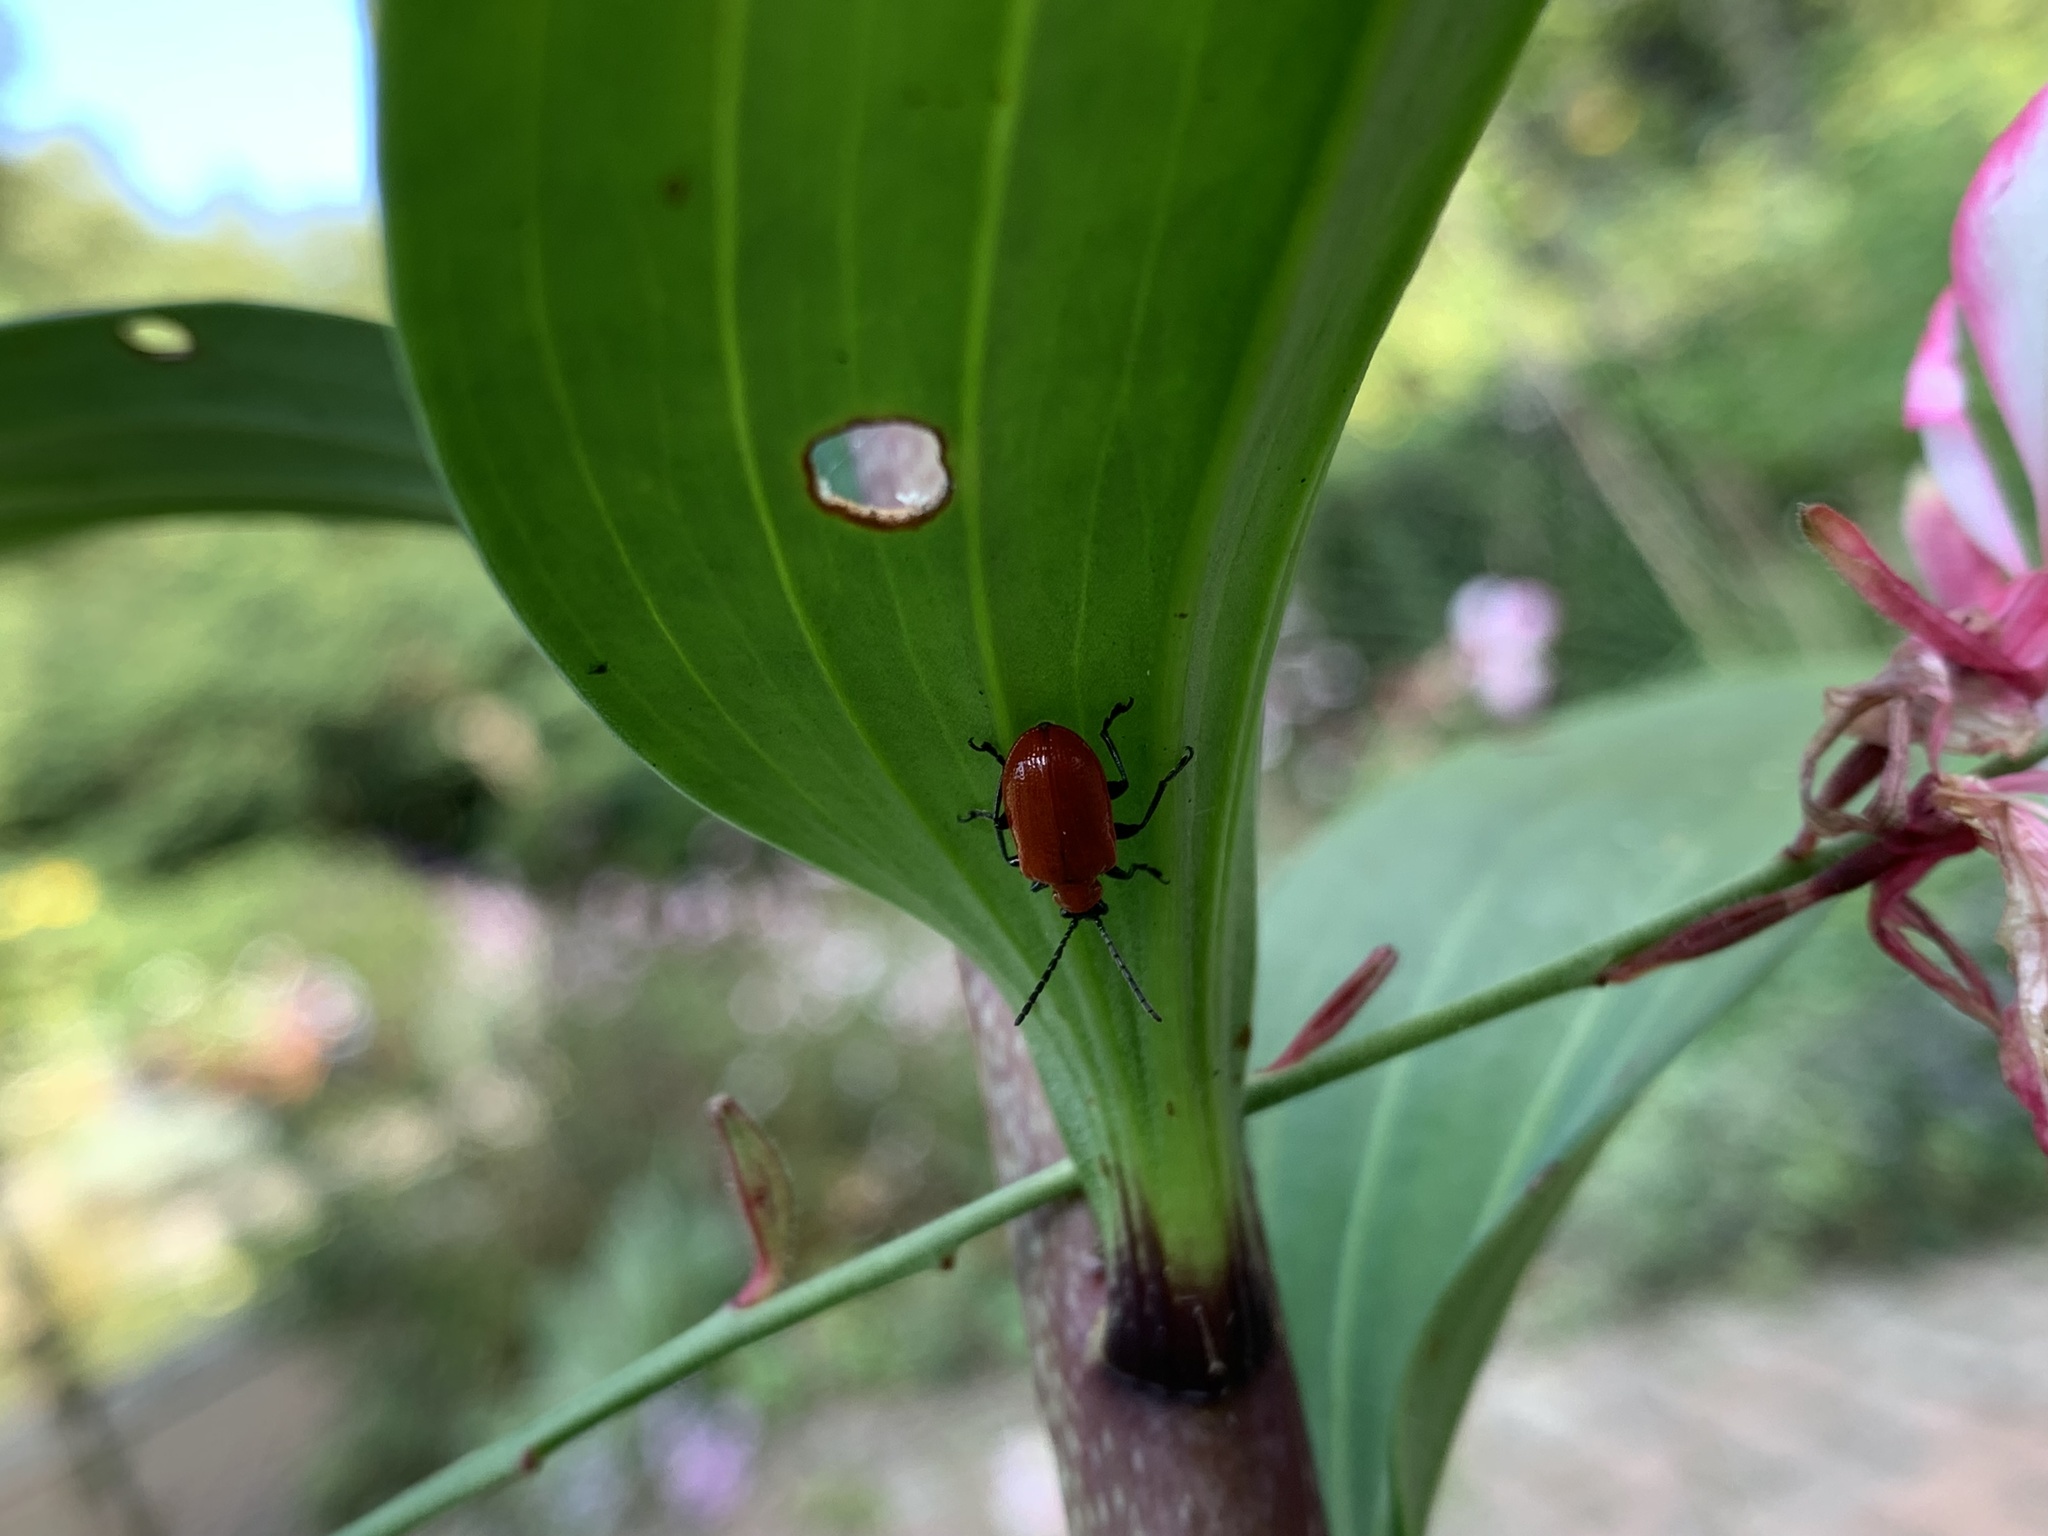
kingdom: Animalia
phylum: Arthropoda
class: Insecta
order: Coleoptera
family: Chrysomelidae
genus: Lilioceris
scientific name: Lilioceris lilii
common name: Lily beetle
